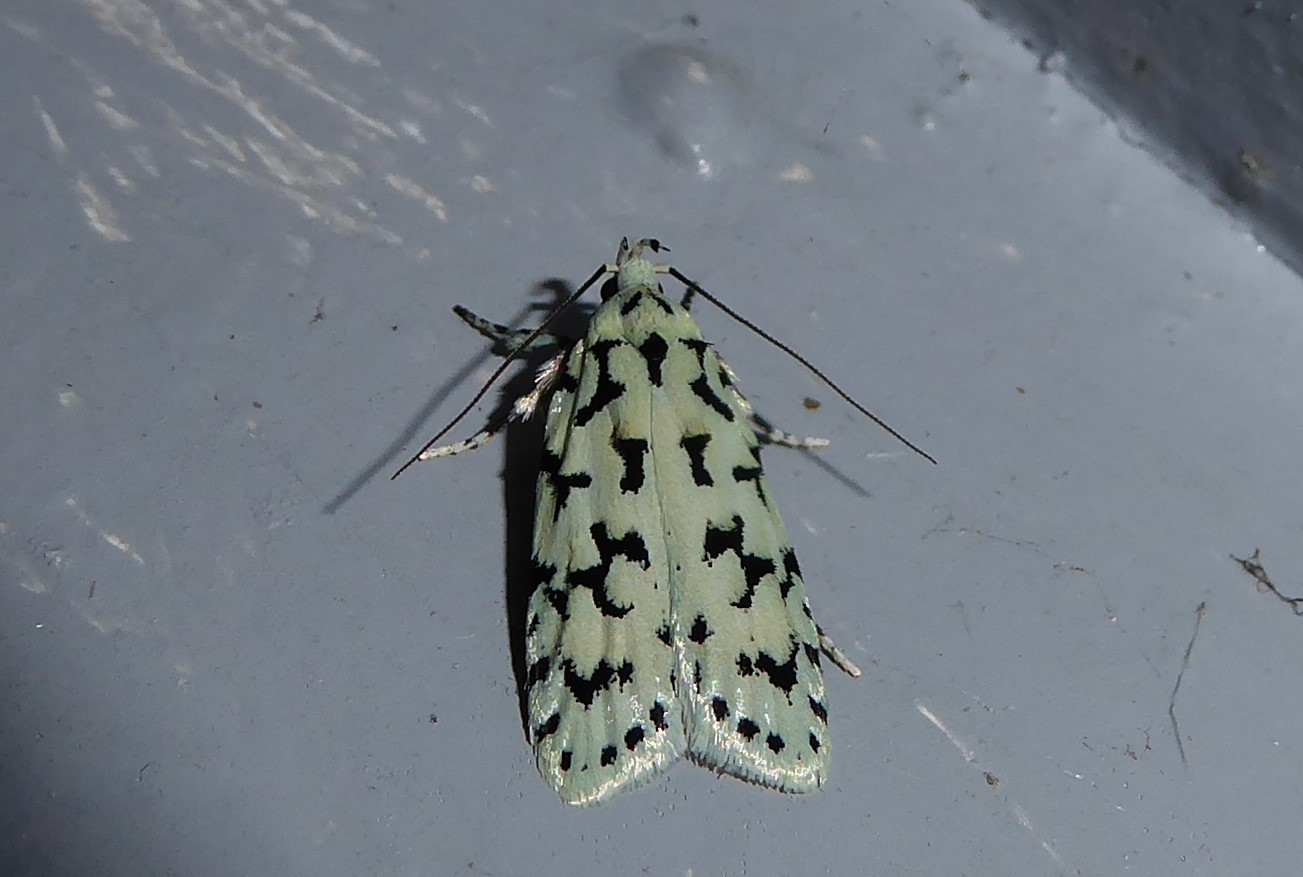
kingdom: Animalia
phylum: Arthropoda
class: Insecta
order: Lepidoptera
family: Oecophoridae
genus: Izatha
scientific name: Izatha huttoni
